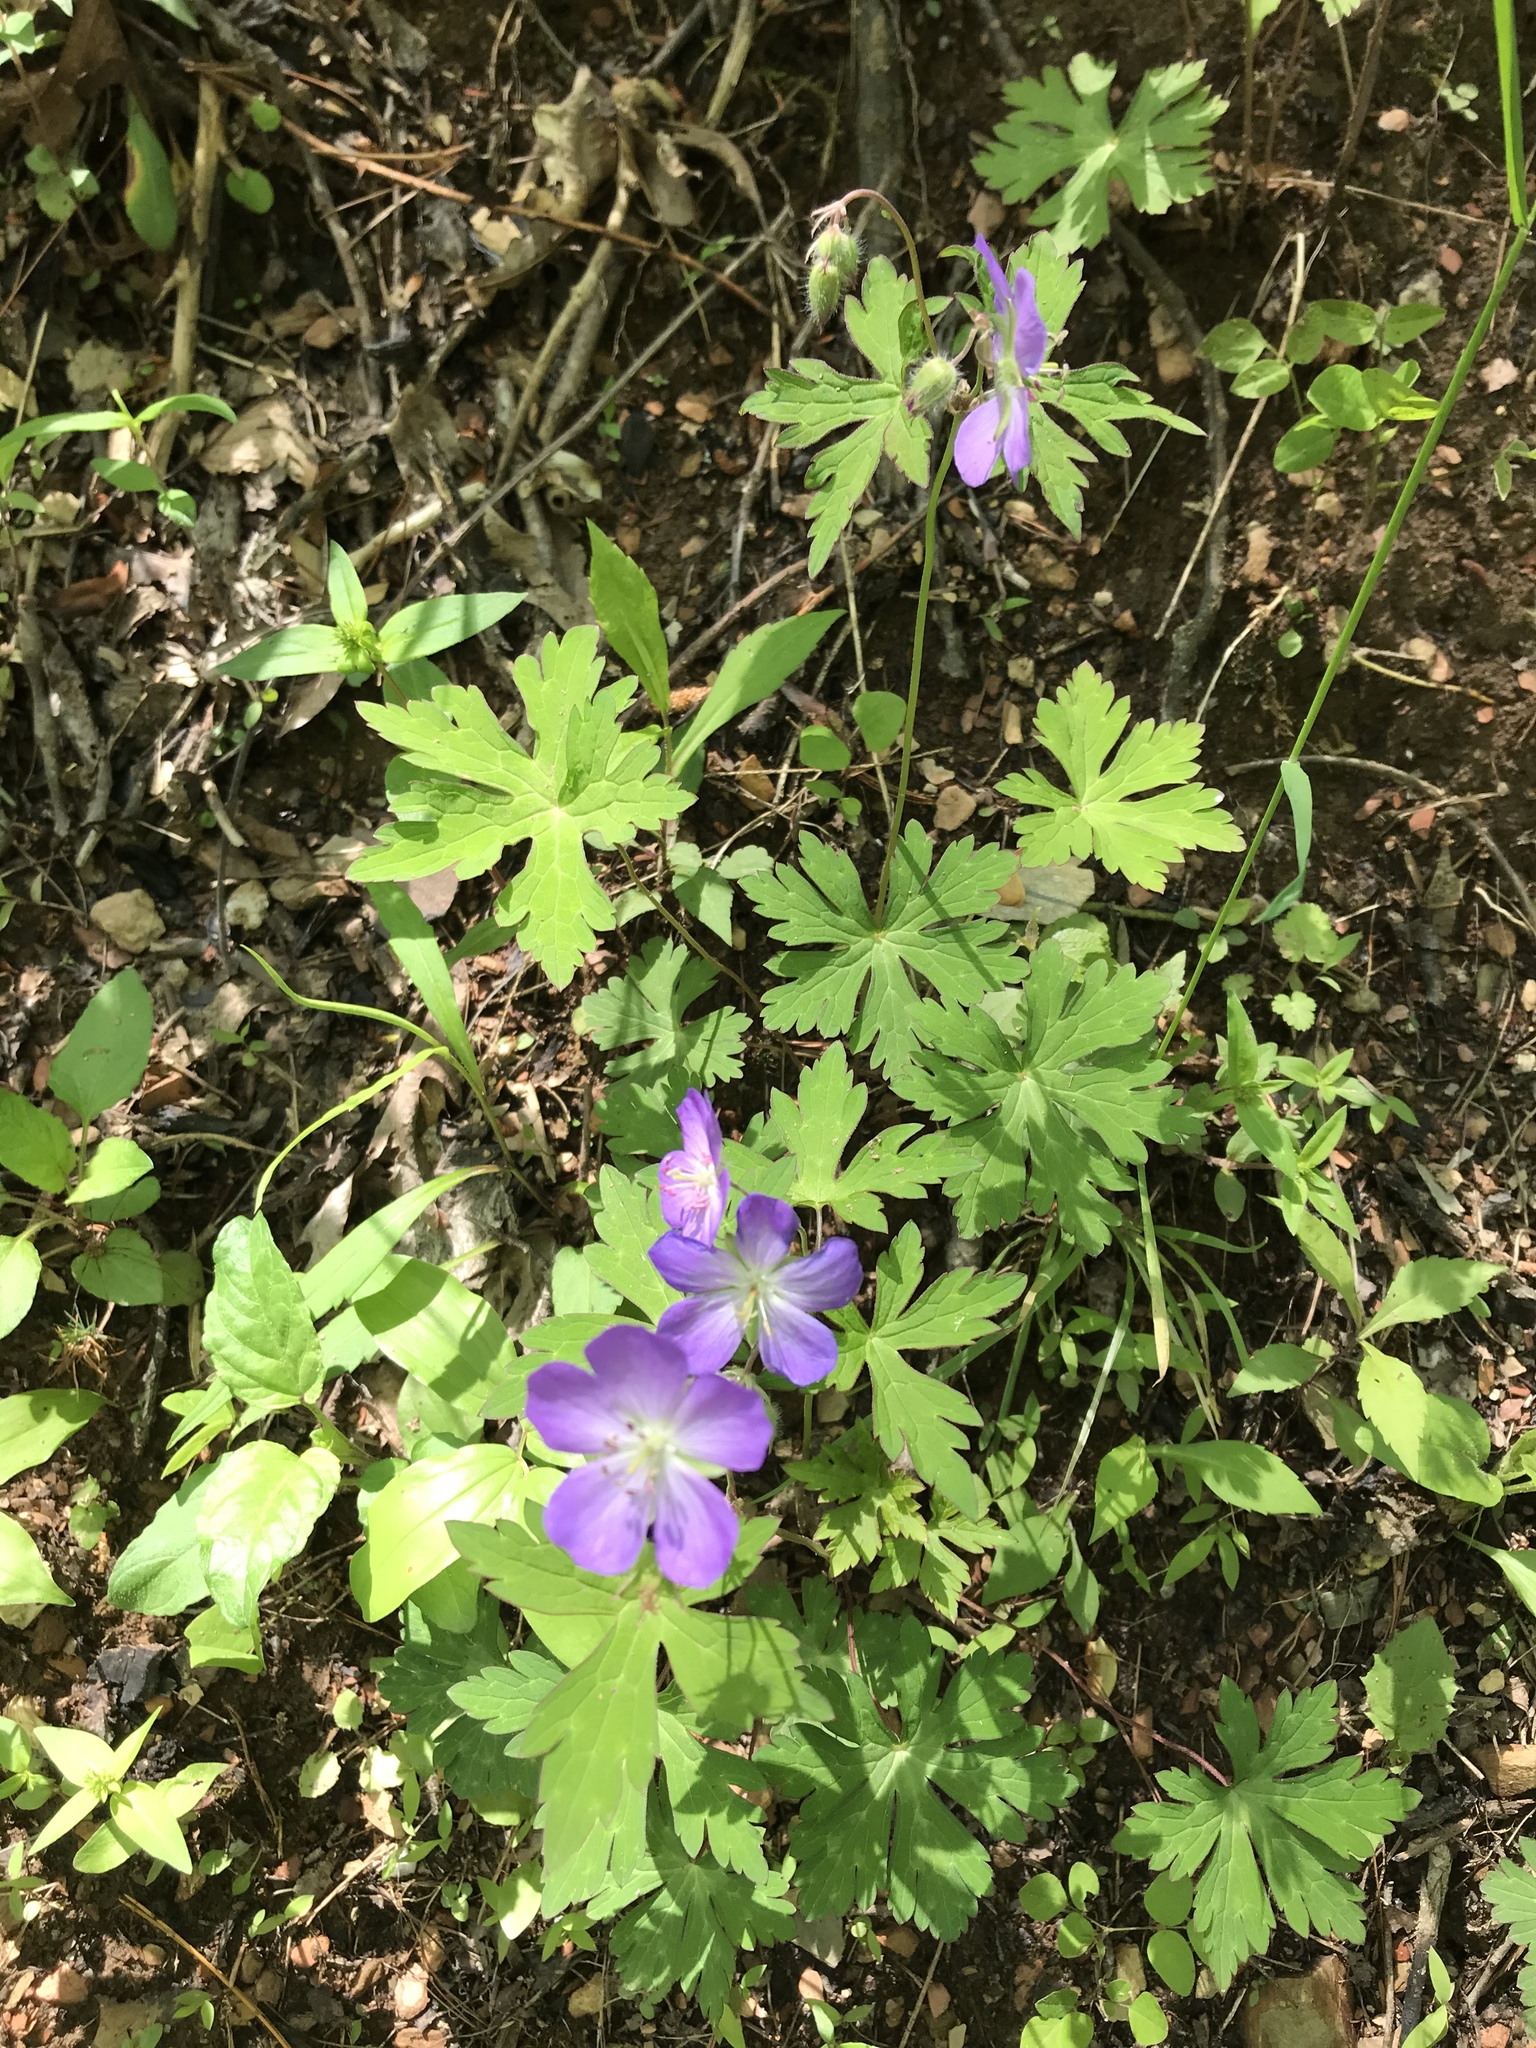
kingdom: Plantae
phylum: Tracheophyta
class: Magnoliopsida
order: Geraniales
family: Geraniaceae
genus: Geranium
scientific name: Geranium maculatum
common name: Spotted geranium
